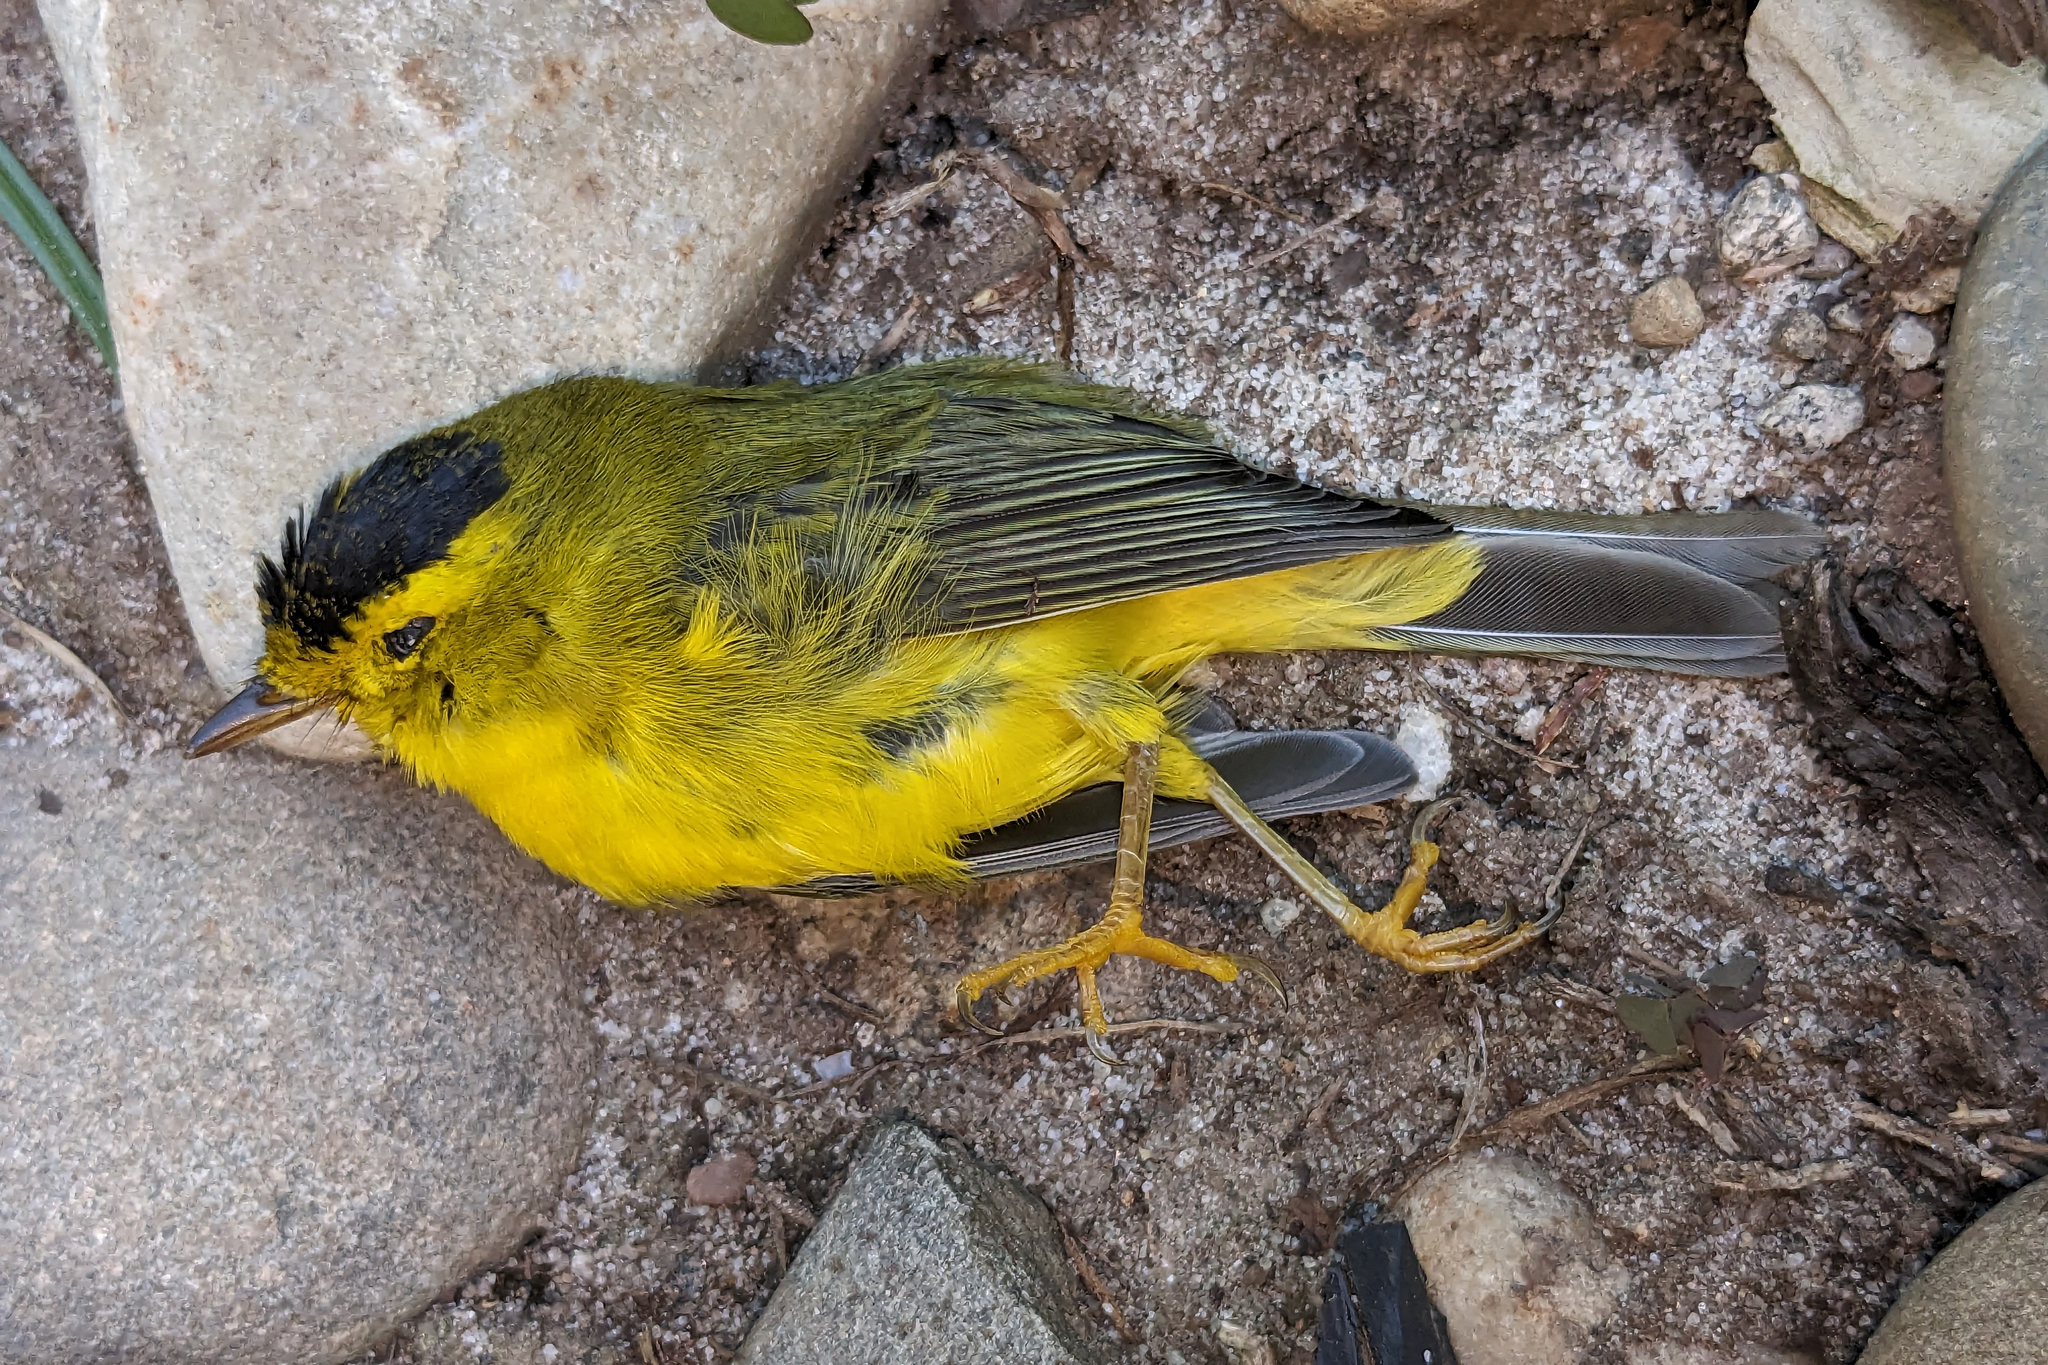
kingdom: Animalia
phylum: Chordata
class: Aves
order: Passeriformes
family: Parulidae
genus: Cardellina
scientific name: Cardellina pusilla
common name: Wilson's warbler
